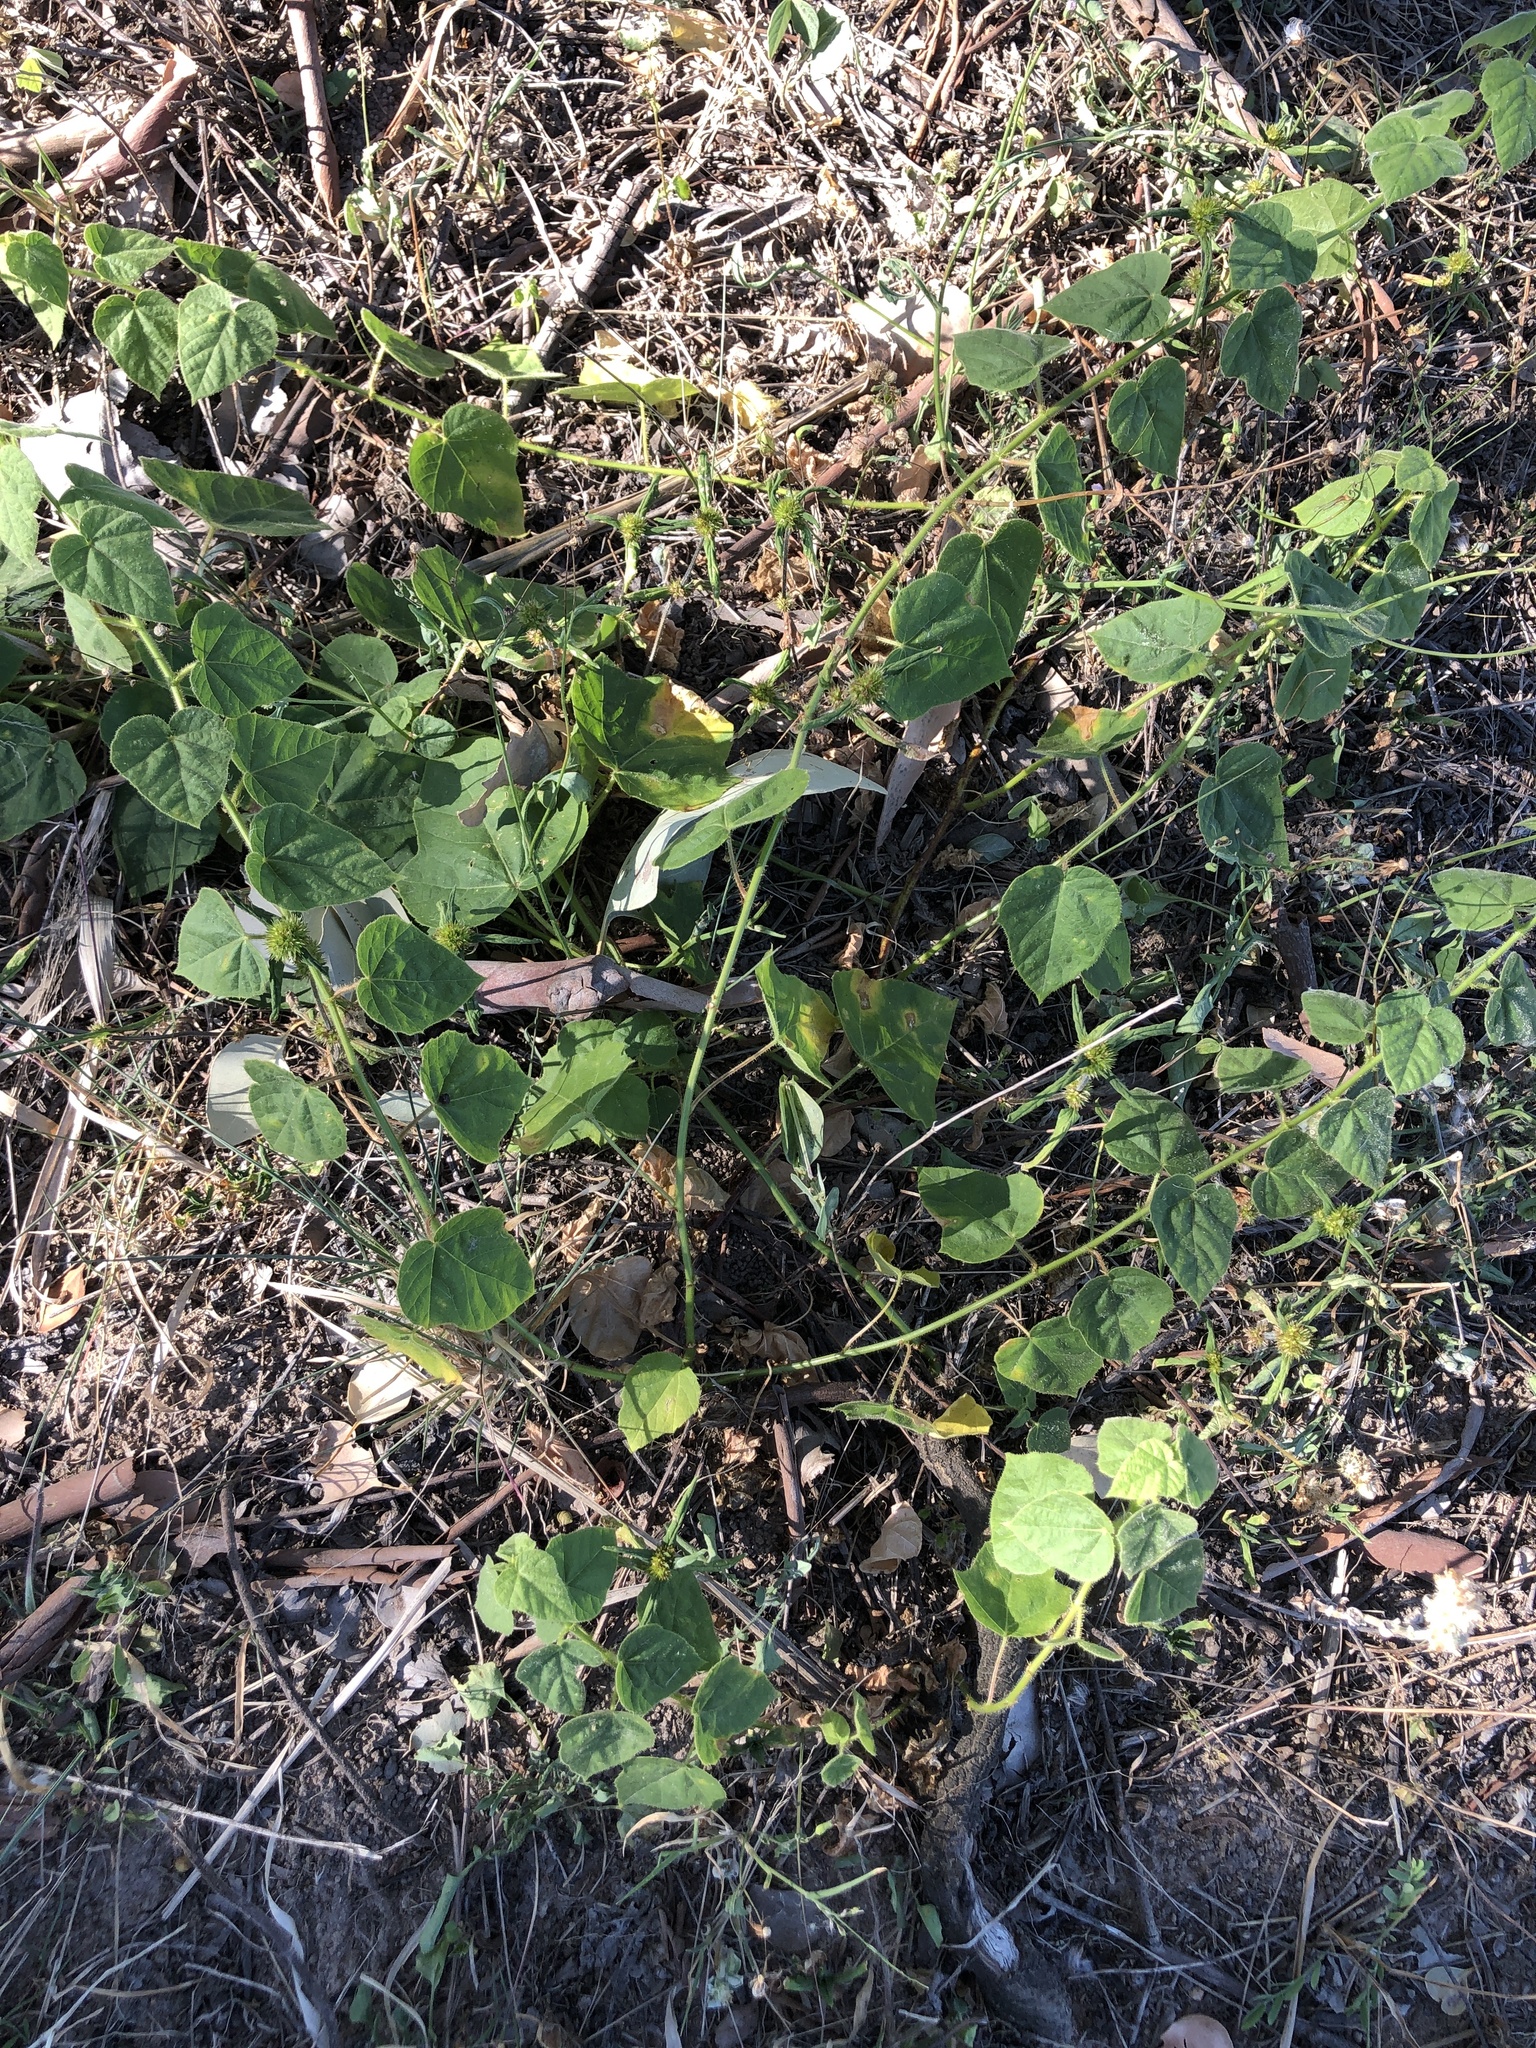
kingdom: Plantae
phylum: Tracheophyta
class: Magnoliopsida
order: Malpighiales
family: Passifloraceae
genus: Passiflora
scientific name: Passiflora foetida
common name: Fetid passionflower
